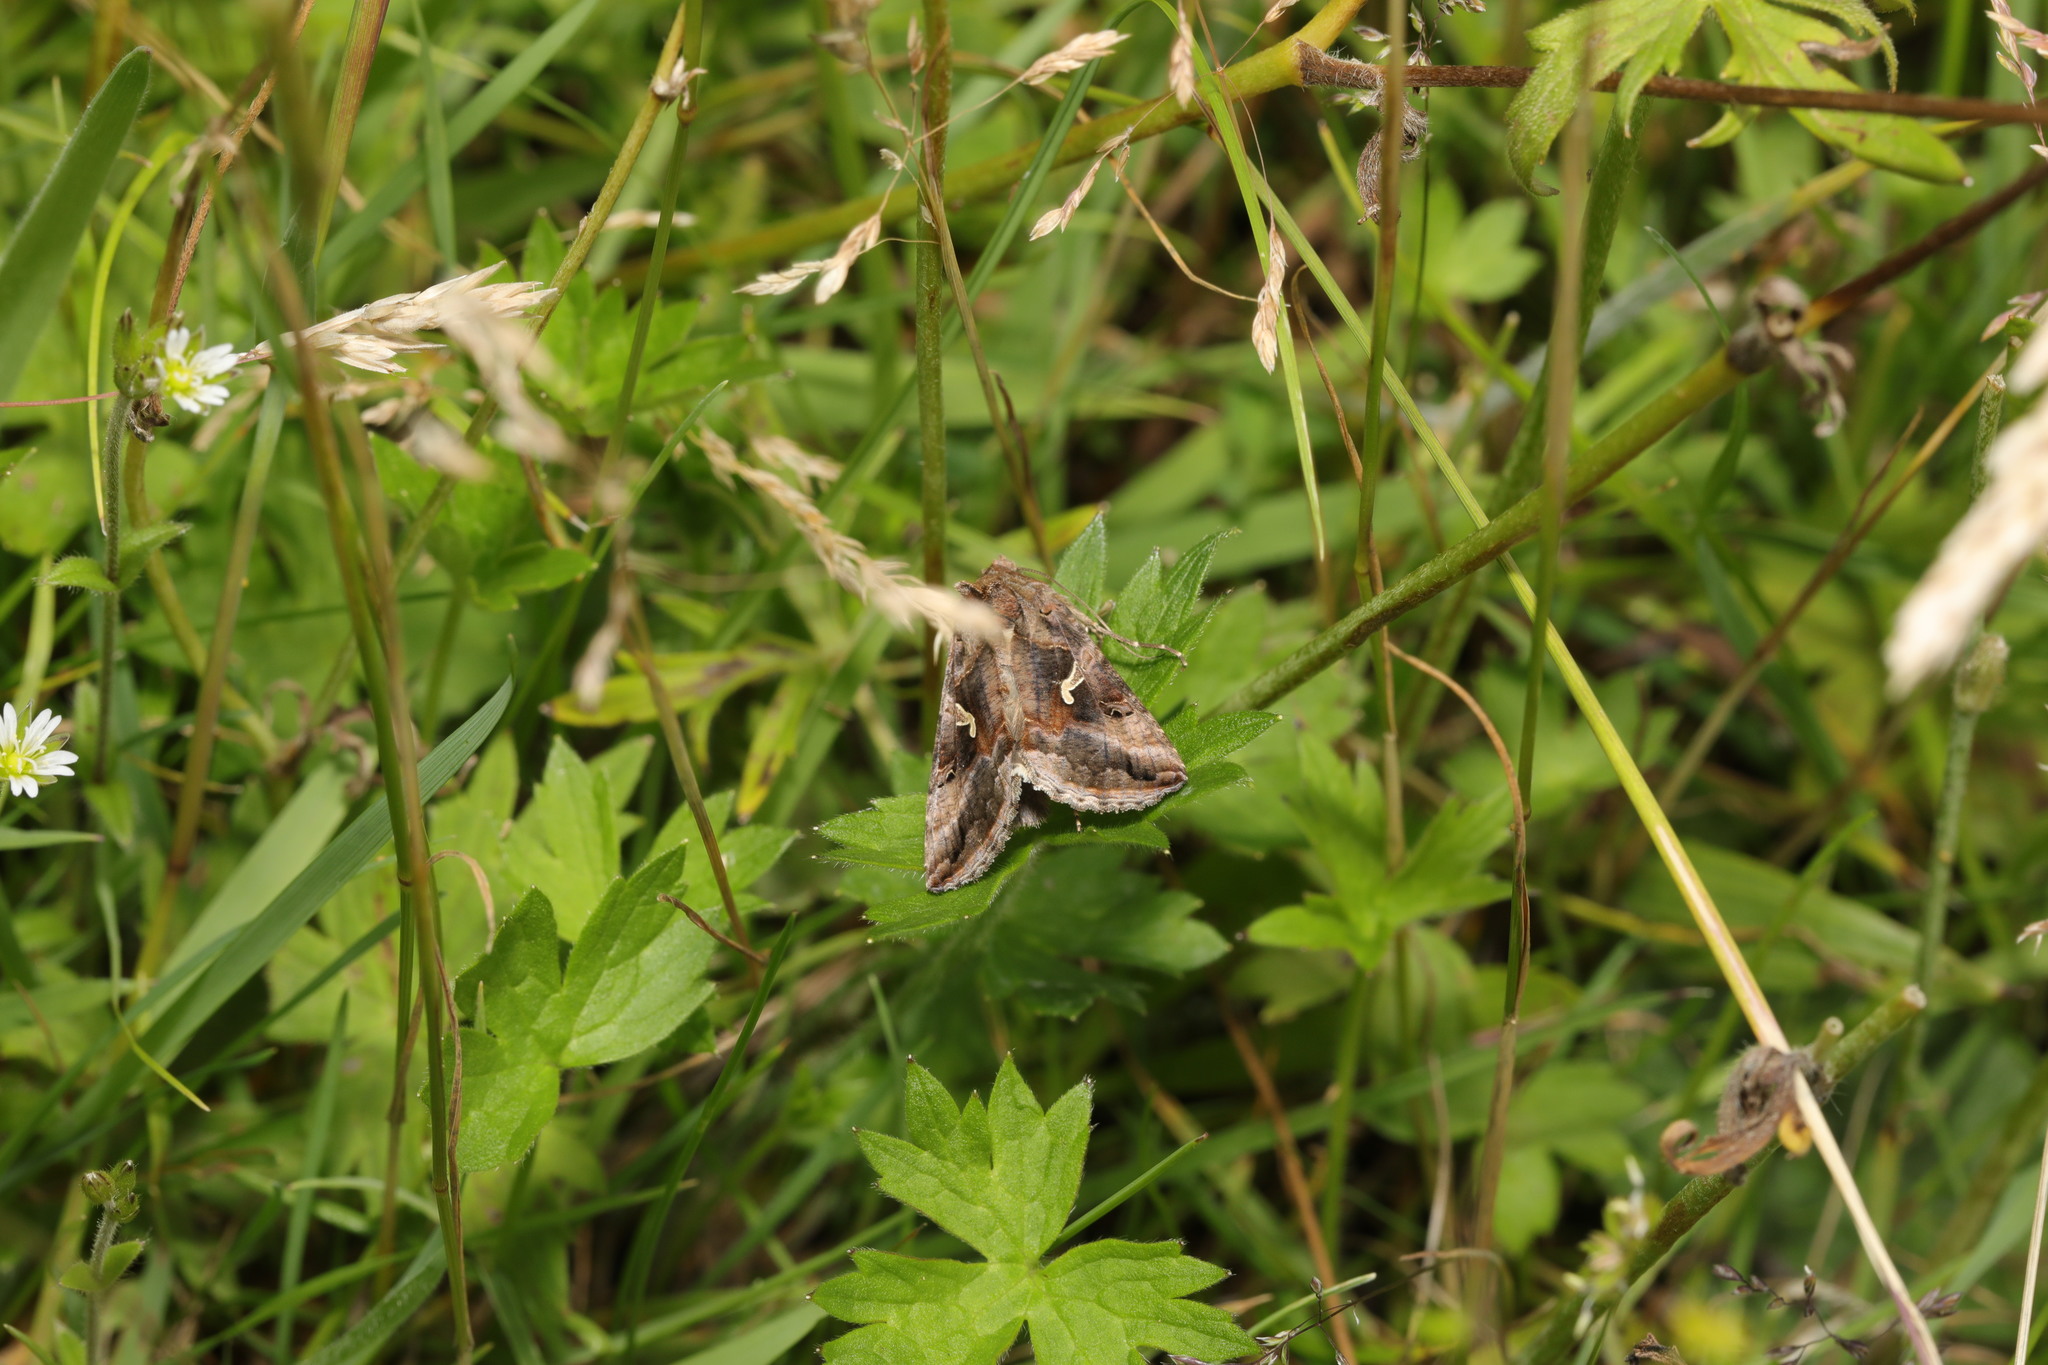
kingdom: Animalia
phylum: Arthropoda
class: Insecta
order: Lepidoptera
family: Noctuidae
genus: Autographa
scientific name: Autographa gamma
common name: Silver y
